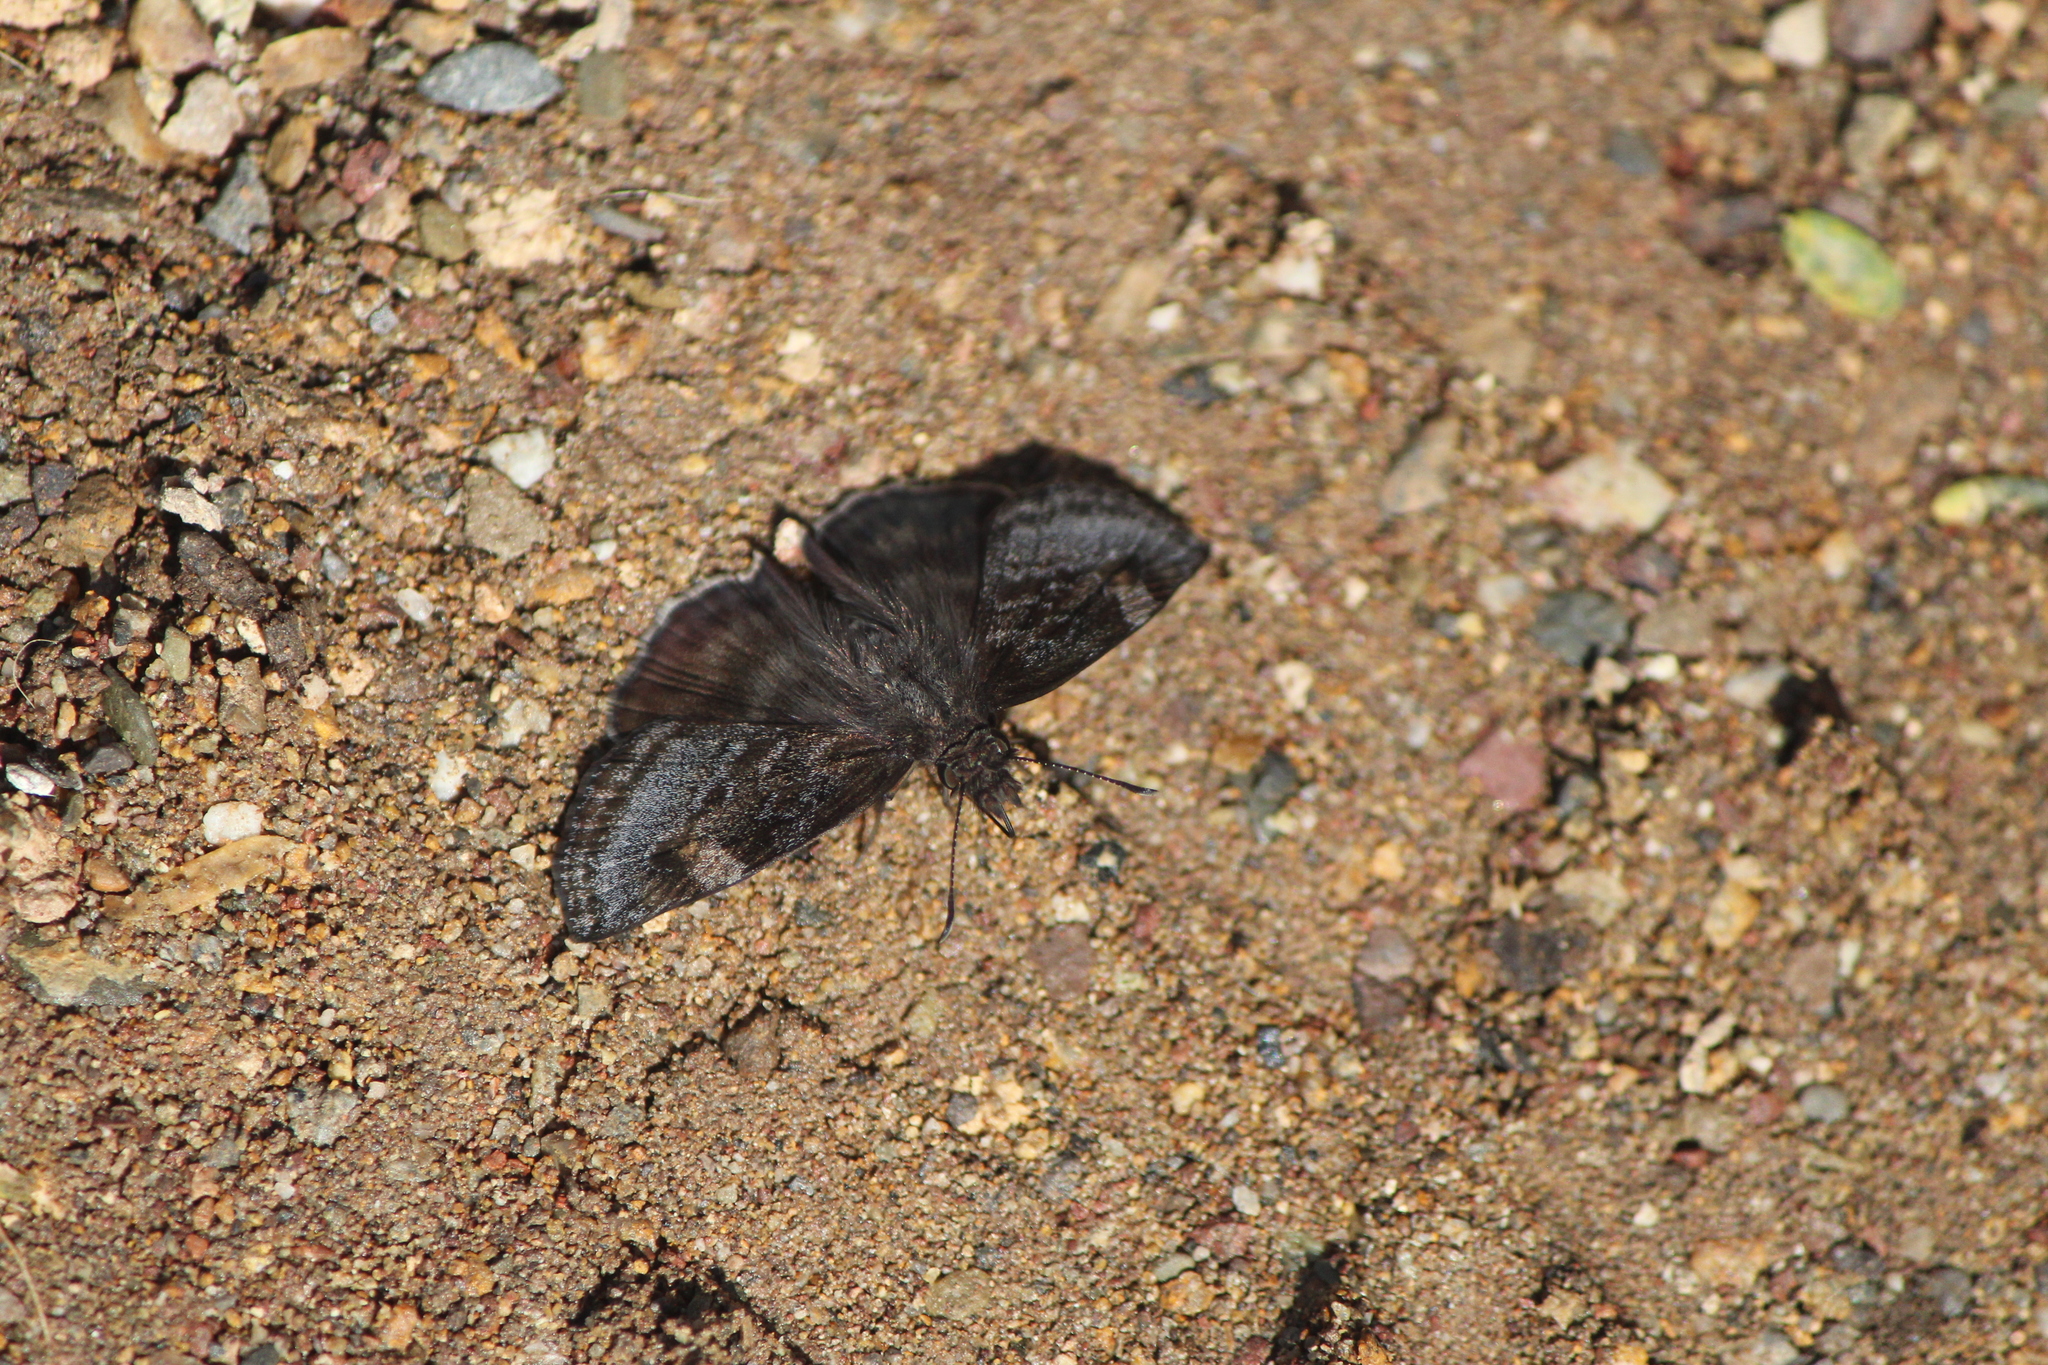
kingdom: Animalia
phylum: Arthropoda
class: Insecta
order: Lepidoptera
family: Hesperiidae
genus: Gesta
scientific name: Gesta gesta
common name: Gesta duskywing
